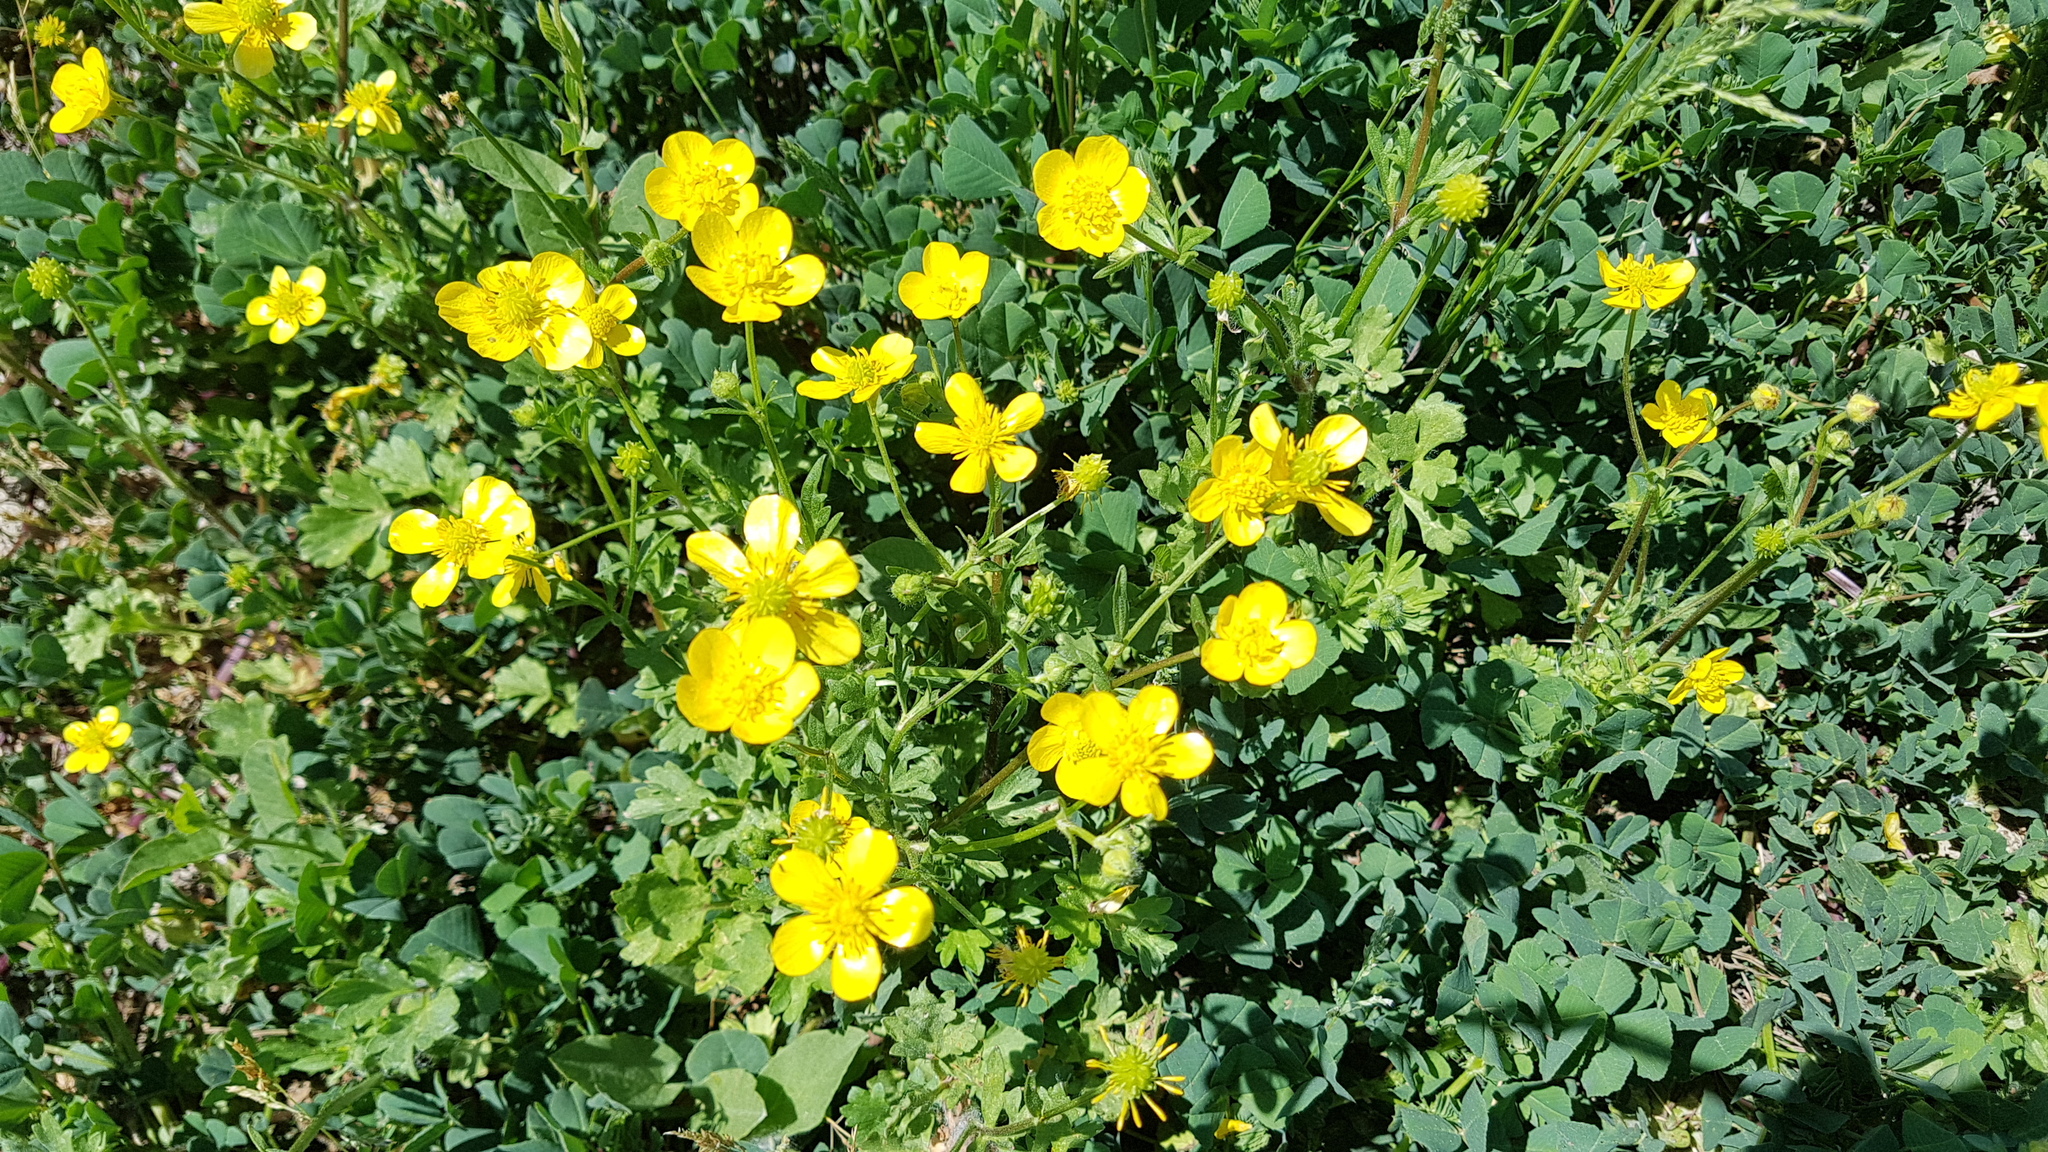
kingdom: Plantae
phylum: Tracheophyta
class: Magnoliopsida
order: Ranunculales
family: Ranunculaceae
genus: Ranunculus
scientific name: Ranunculus repens
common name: Creeping buttercup
